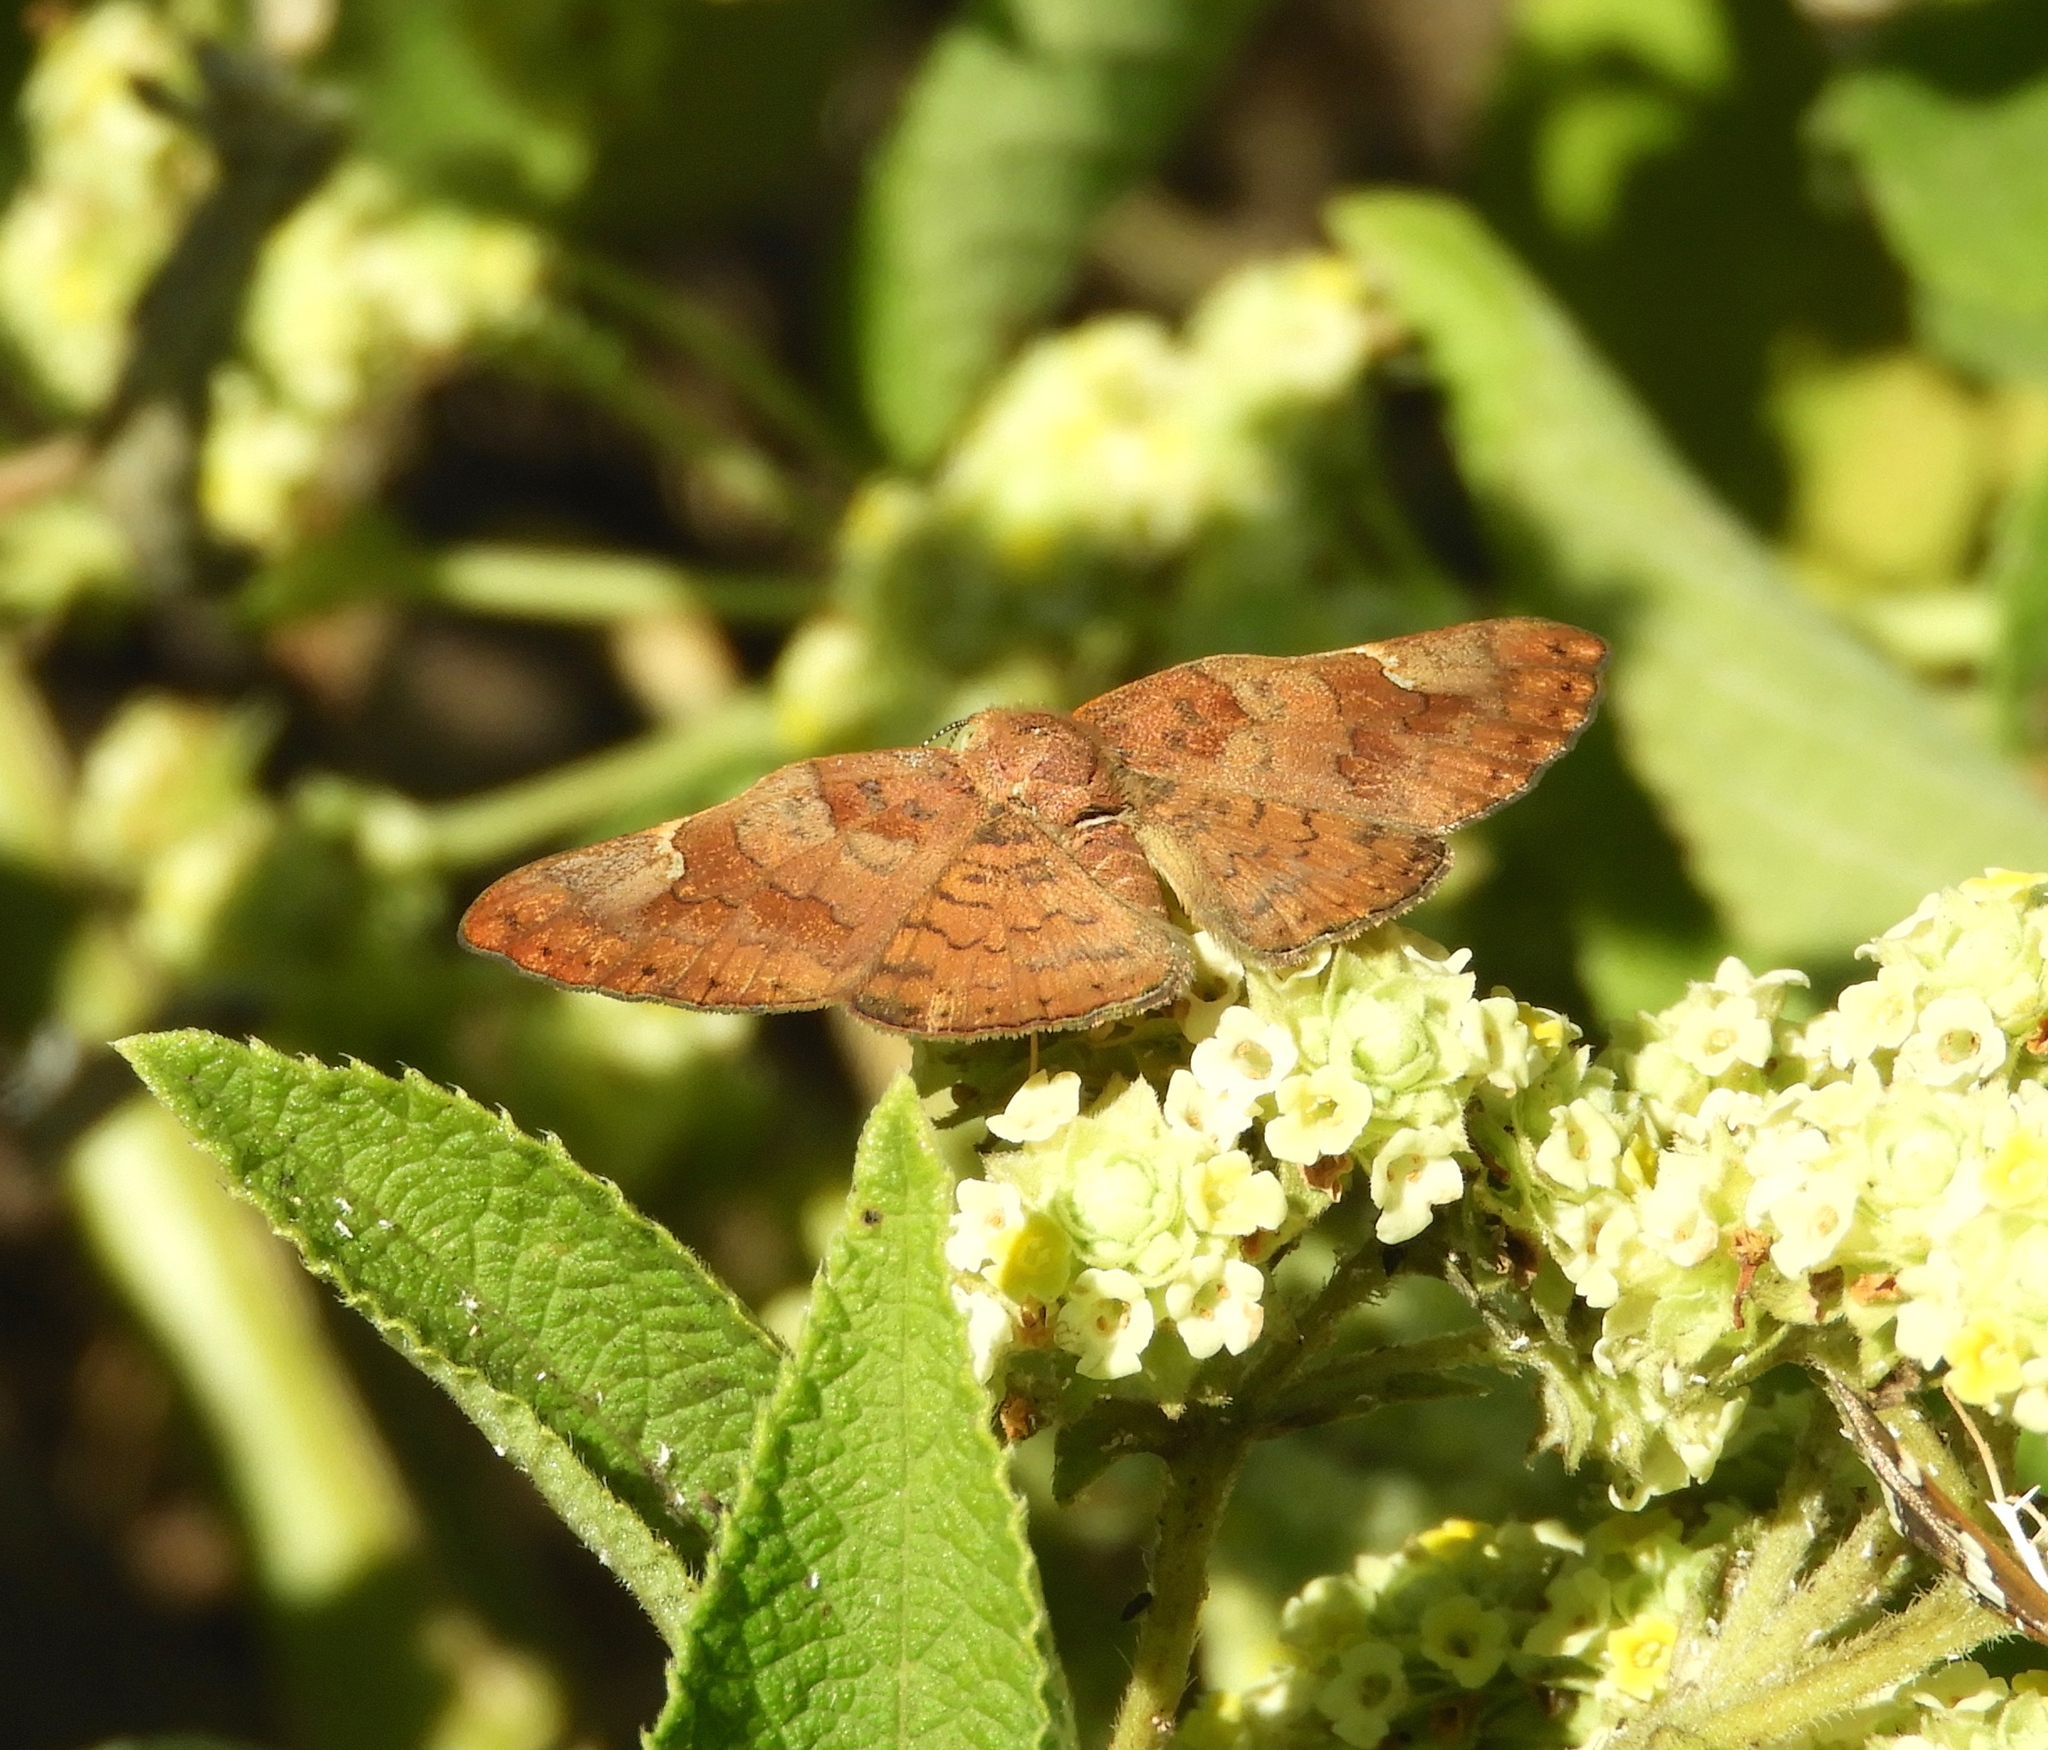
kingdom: Animalia
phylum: Arthropoda
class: Insecta
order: Lepidoptera
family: Riodinidae
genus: Curvie
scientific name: Curvie emesia
